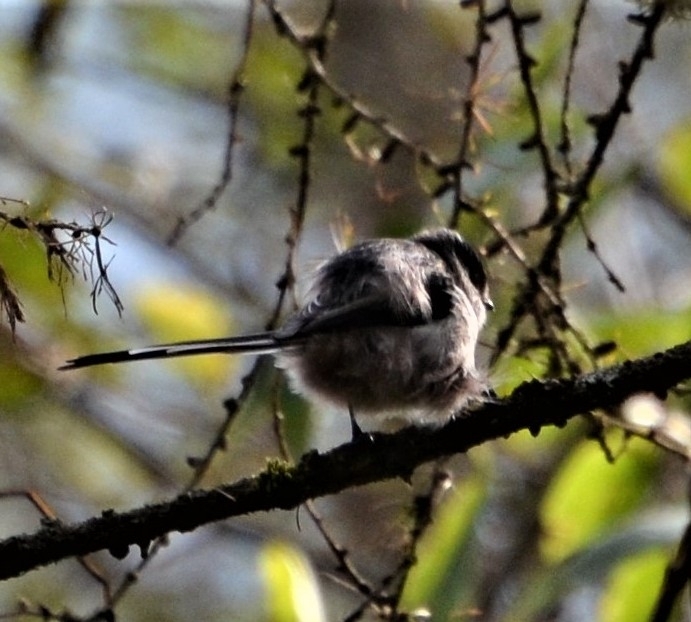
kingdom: Animalia
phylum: Chordata
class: Aves
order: Passeriformes
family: Aegithalidae
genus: Aegithalos
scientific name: Aegithalos caudatus
